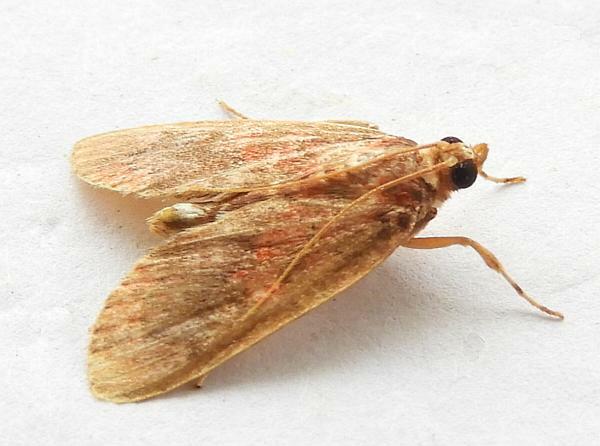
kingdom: Animalia
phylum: Arthropoda
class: Insecta
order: Lepidoptera
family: Crambidae
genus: Mimophobetron
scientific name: Mimophobetron pyropsalis
